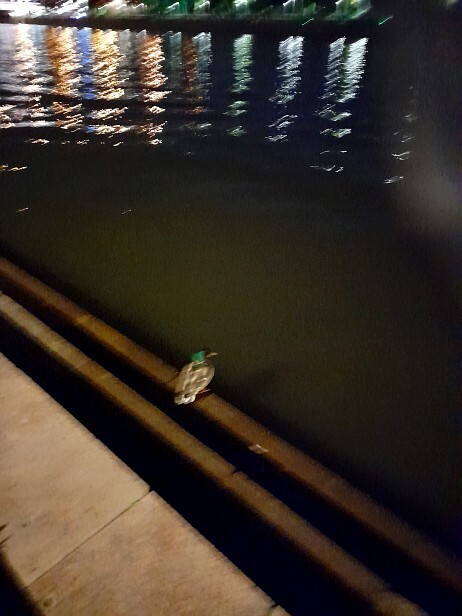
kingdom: Animalia
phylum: Chordata
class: Aves
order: Anseriformes
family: Anatidae
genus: Anas
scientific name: Anas platyrhynchos
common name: Mallard
